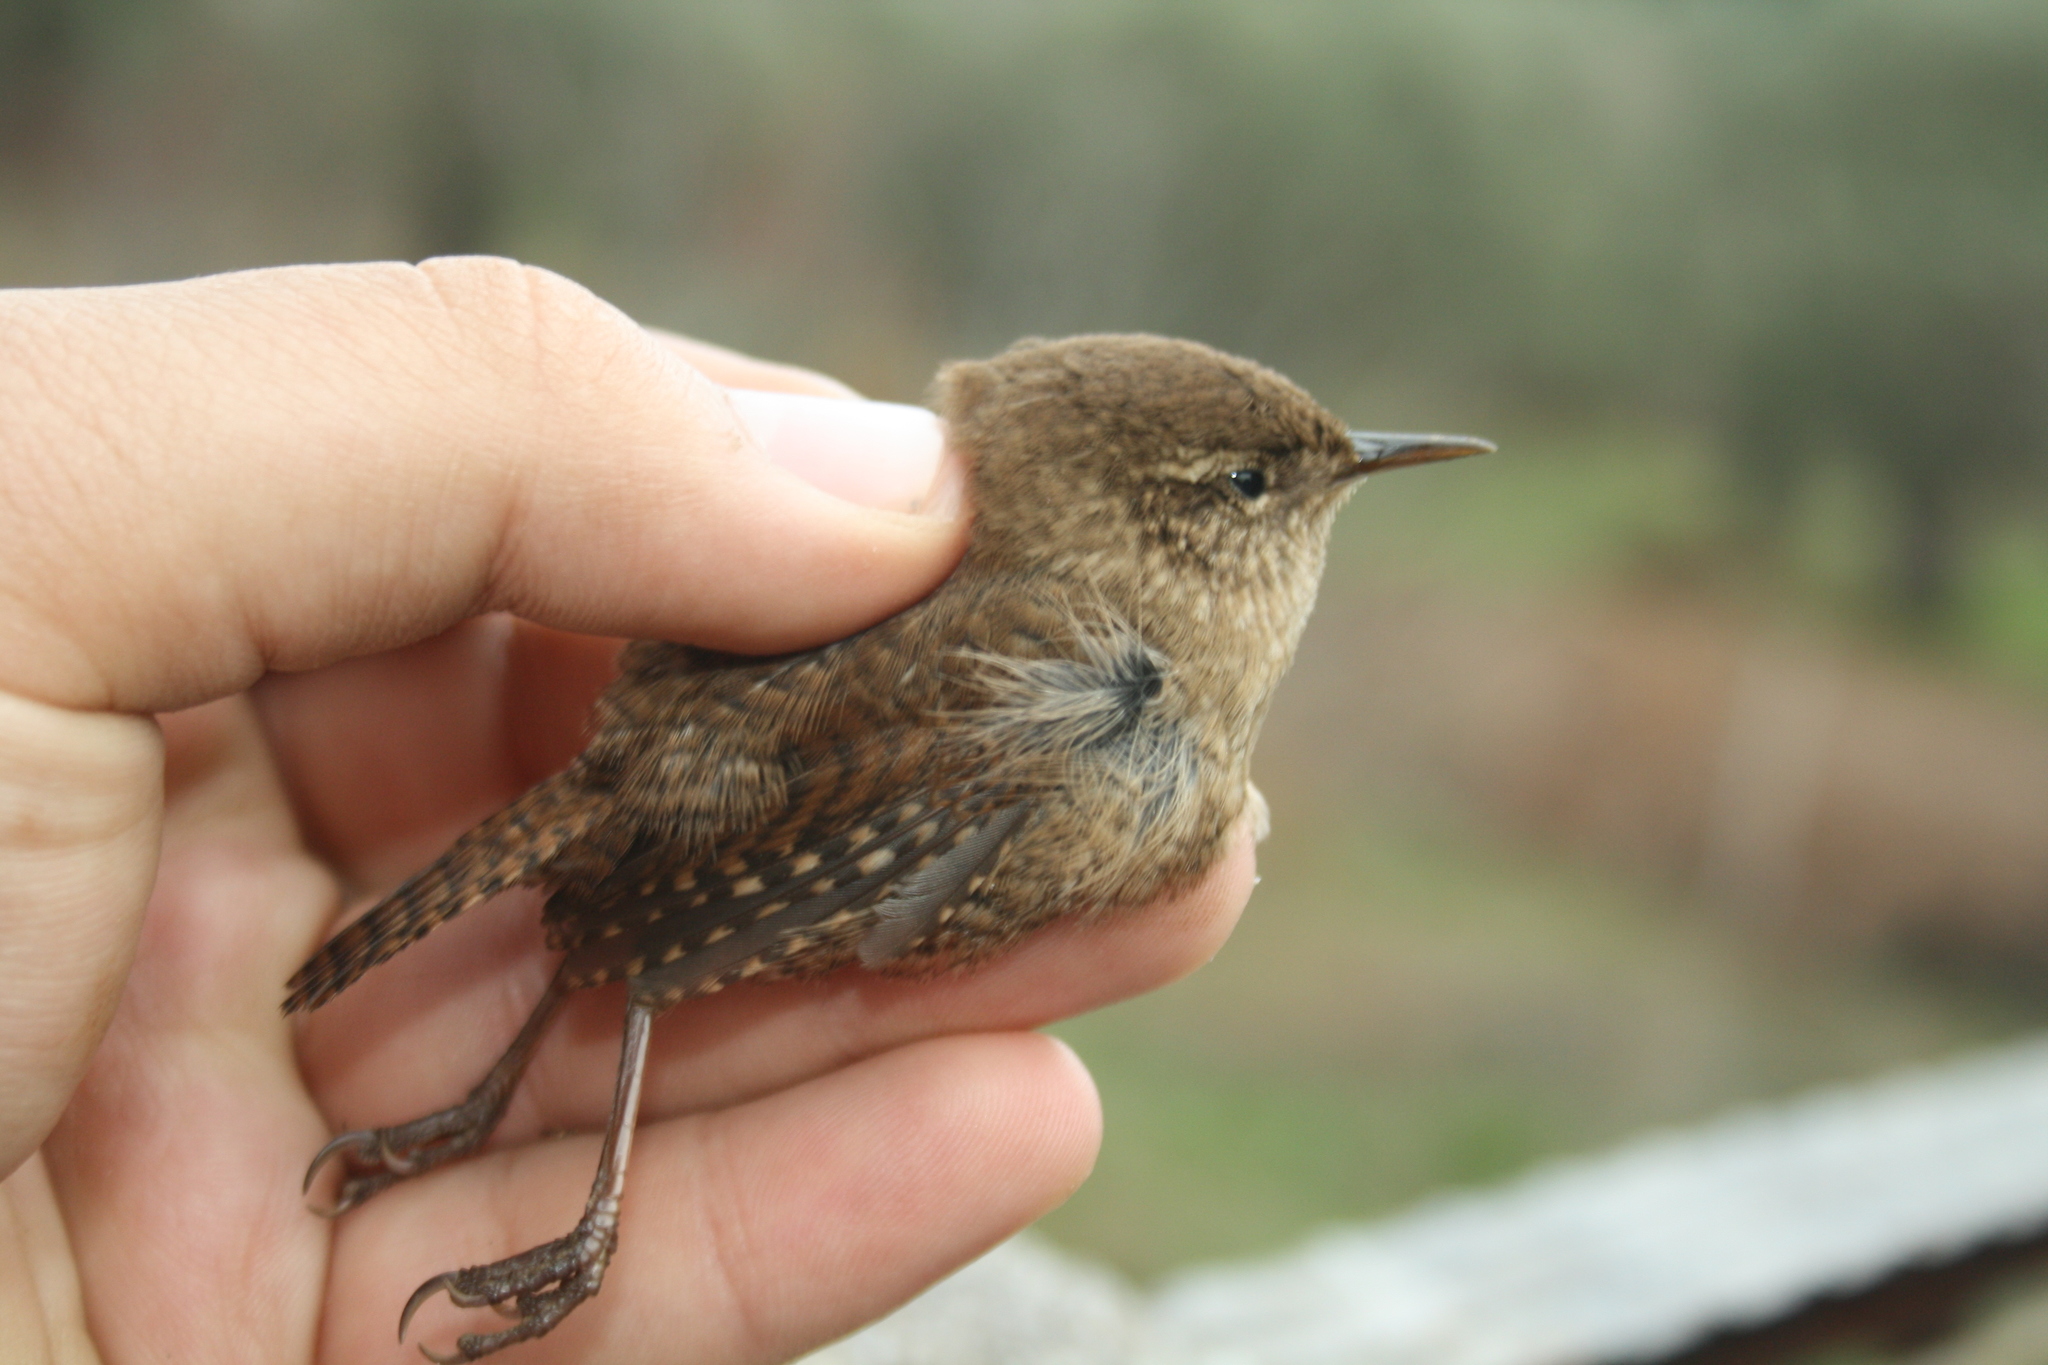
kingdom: Animalia
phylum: Chordata
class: Aves
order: Passeriformes
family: Troglodytidae
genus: Troglodytes
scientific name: Troglodytes troglodytes
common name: Eurasian wren
